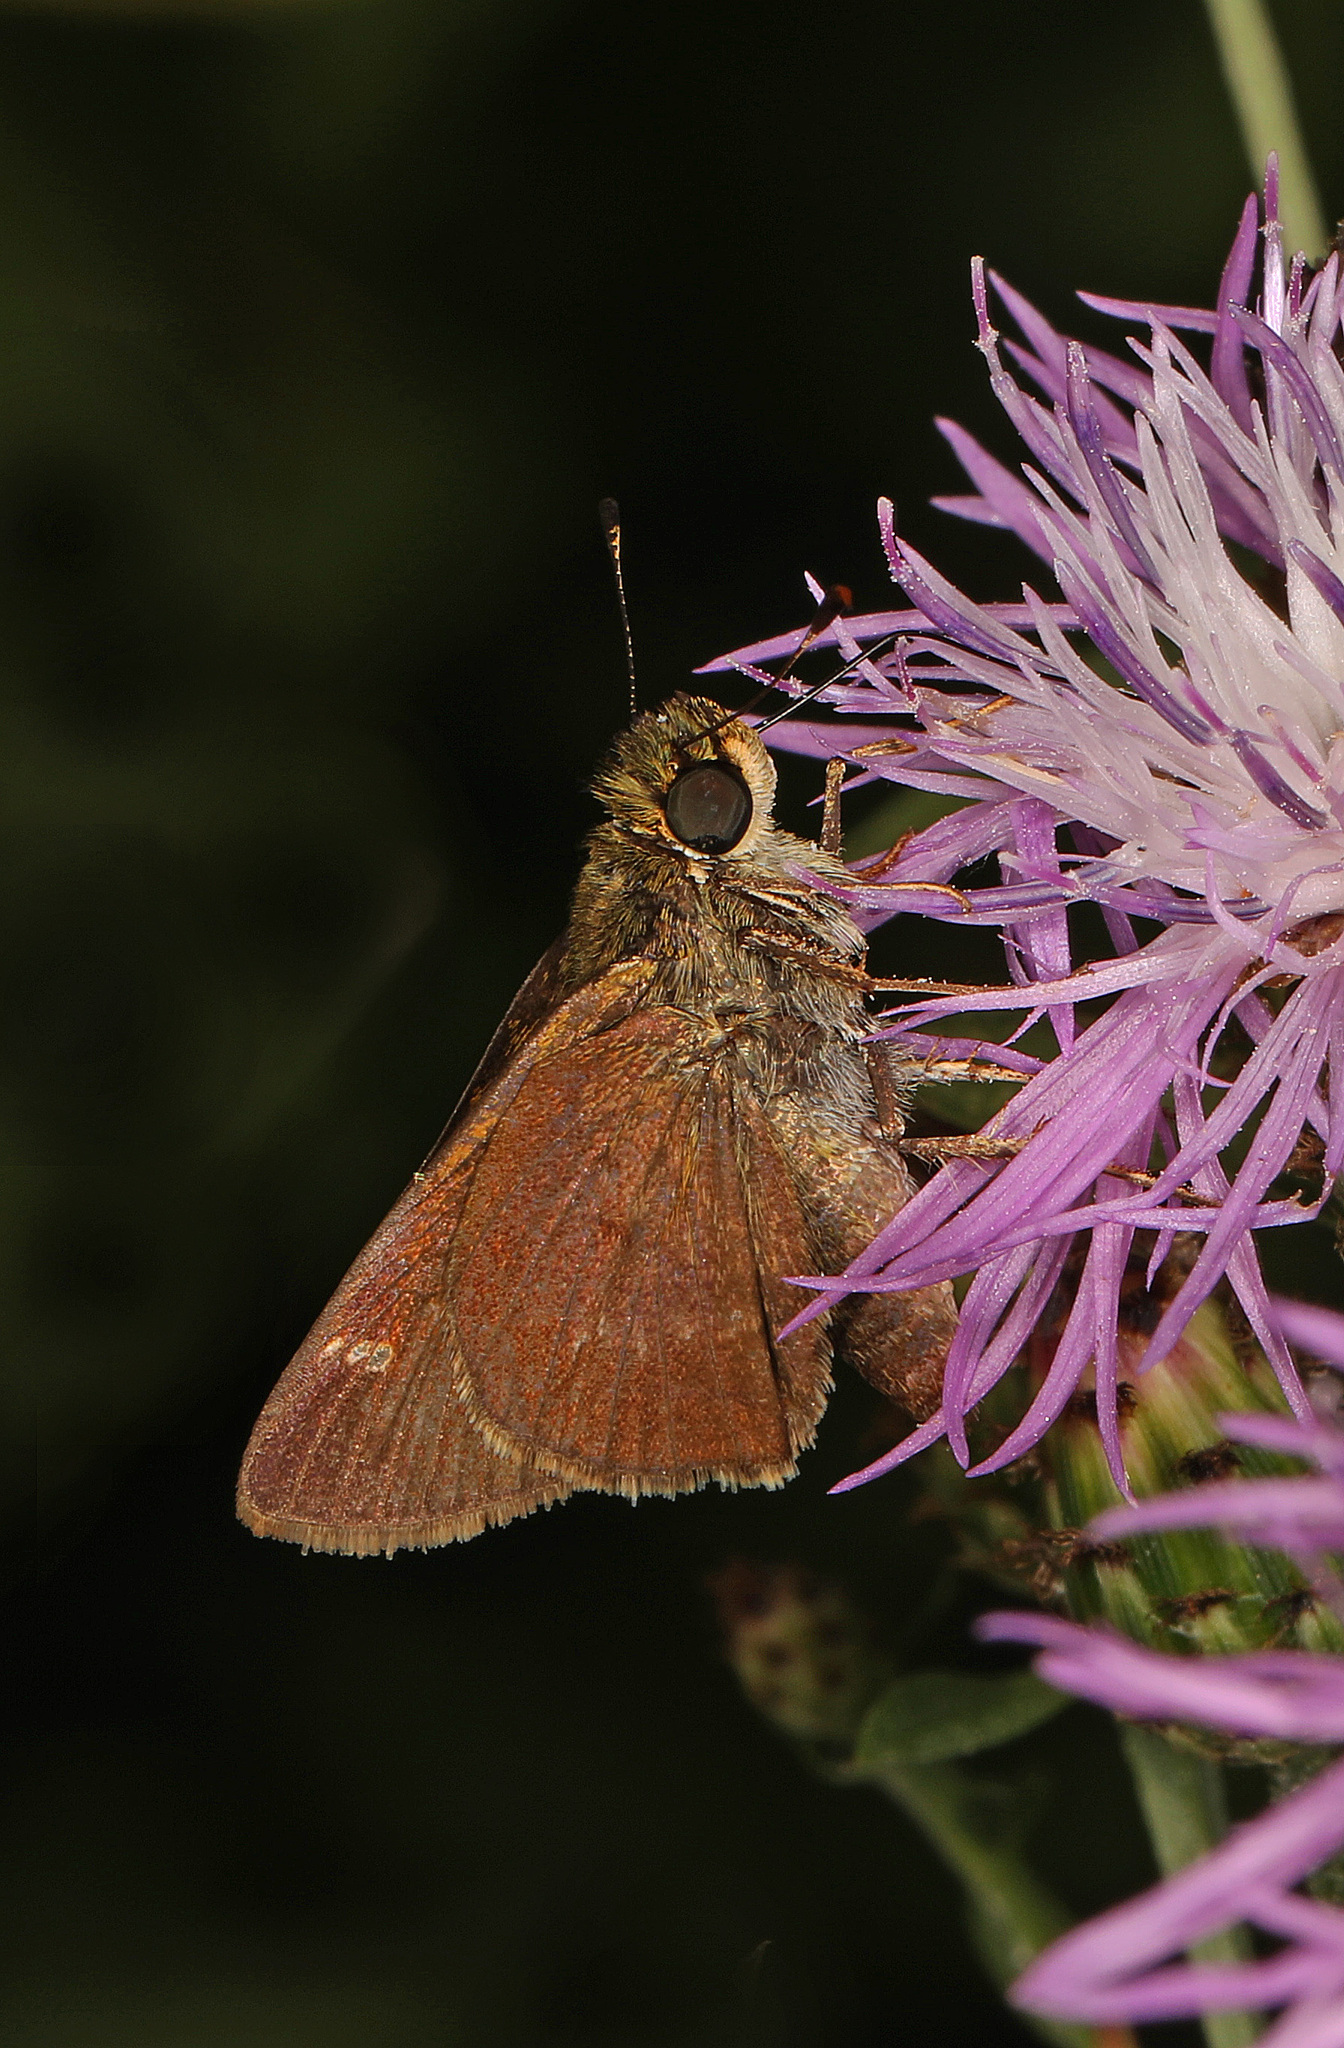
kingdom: Animalia
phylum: Arthropoda
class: Insecta
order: Lepidoptera
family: Hesperiidae
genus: Vernia
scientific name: Vernia verna
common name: Little glassywing
